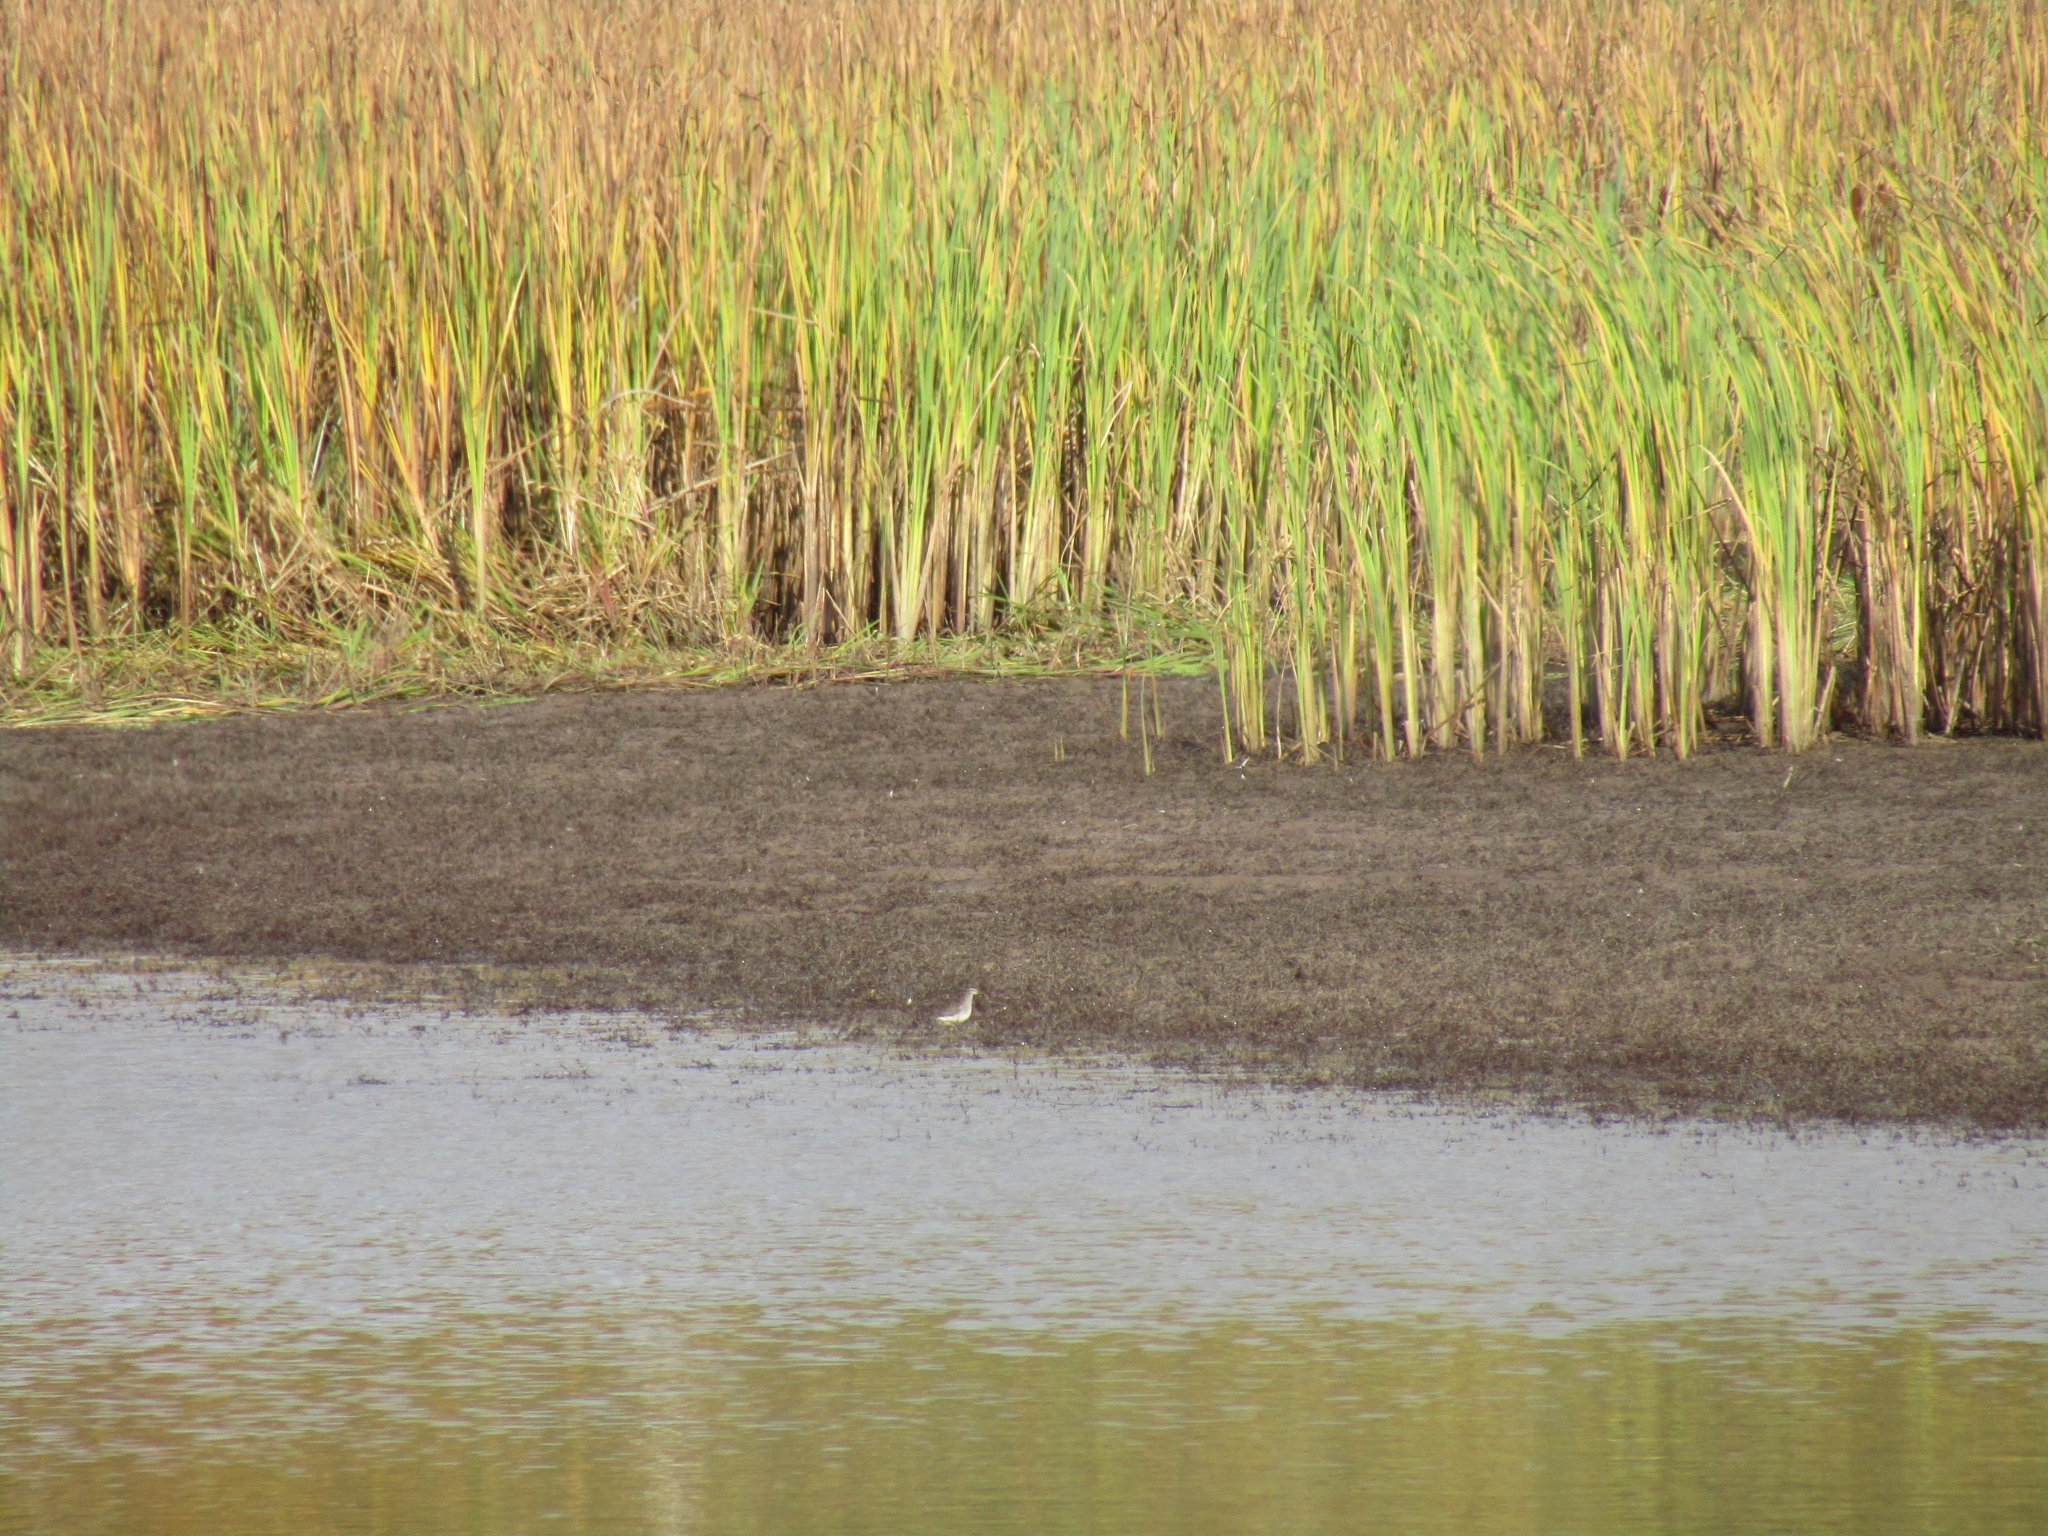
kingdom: Animalia
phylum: Chordata
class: Aves
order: Charadriiformes
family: Scolopacidae
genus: Tringa
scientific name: Tringa glareola
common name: Wood sandpiper
